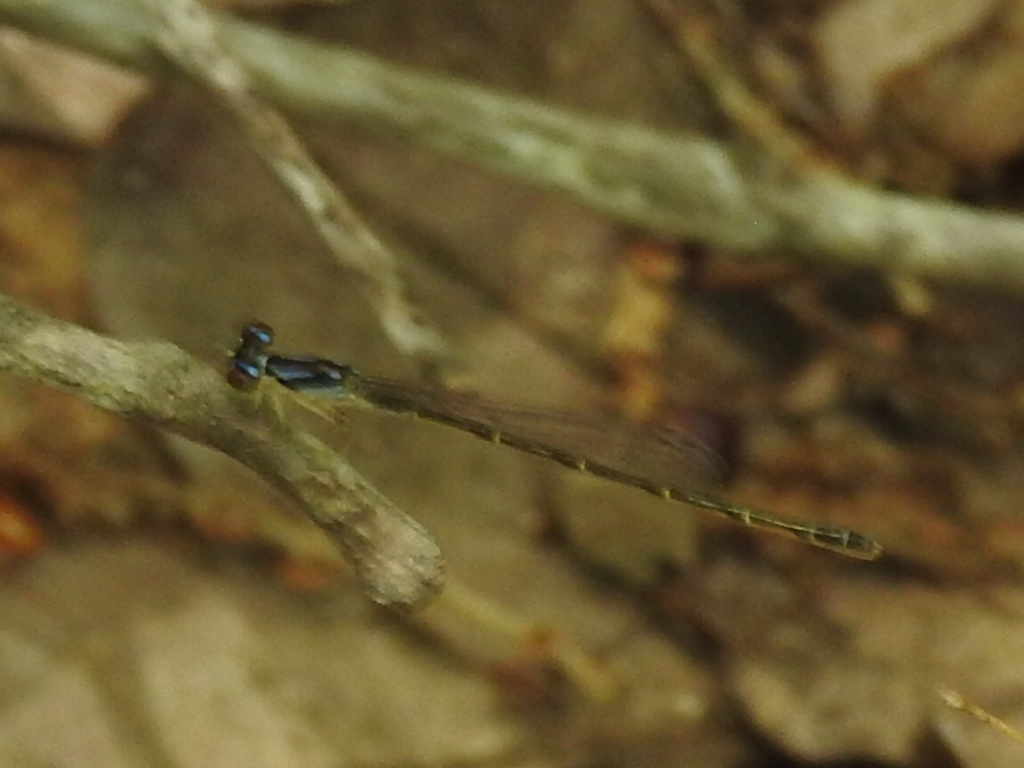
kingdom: Animalia
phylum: Arthropoda
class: Insecta
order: Odonata
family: Coenagrionidae
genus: Ischnura
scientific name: Ischnura posita
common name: Fragile forktail
